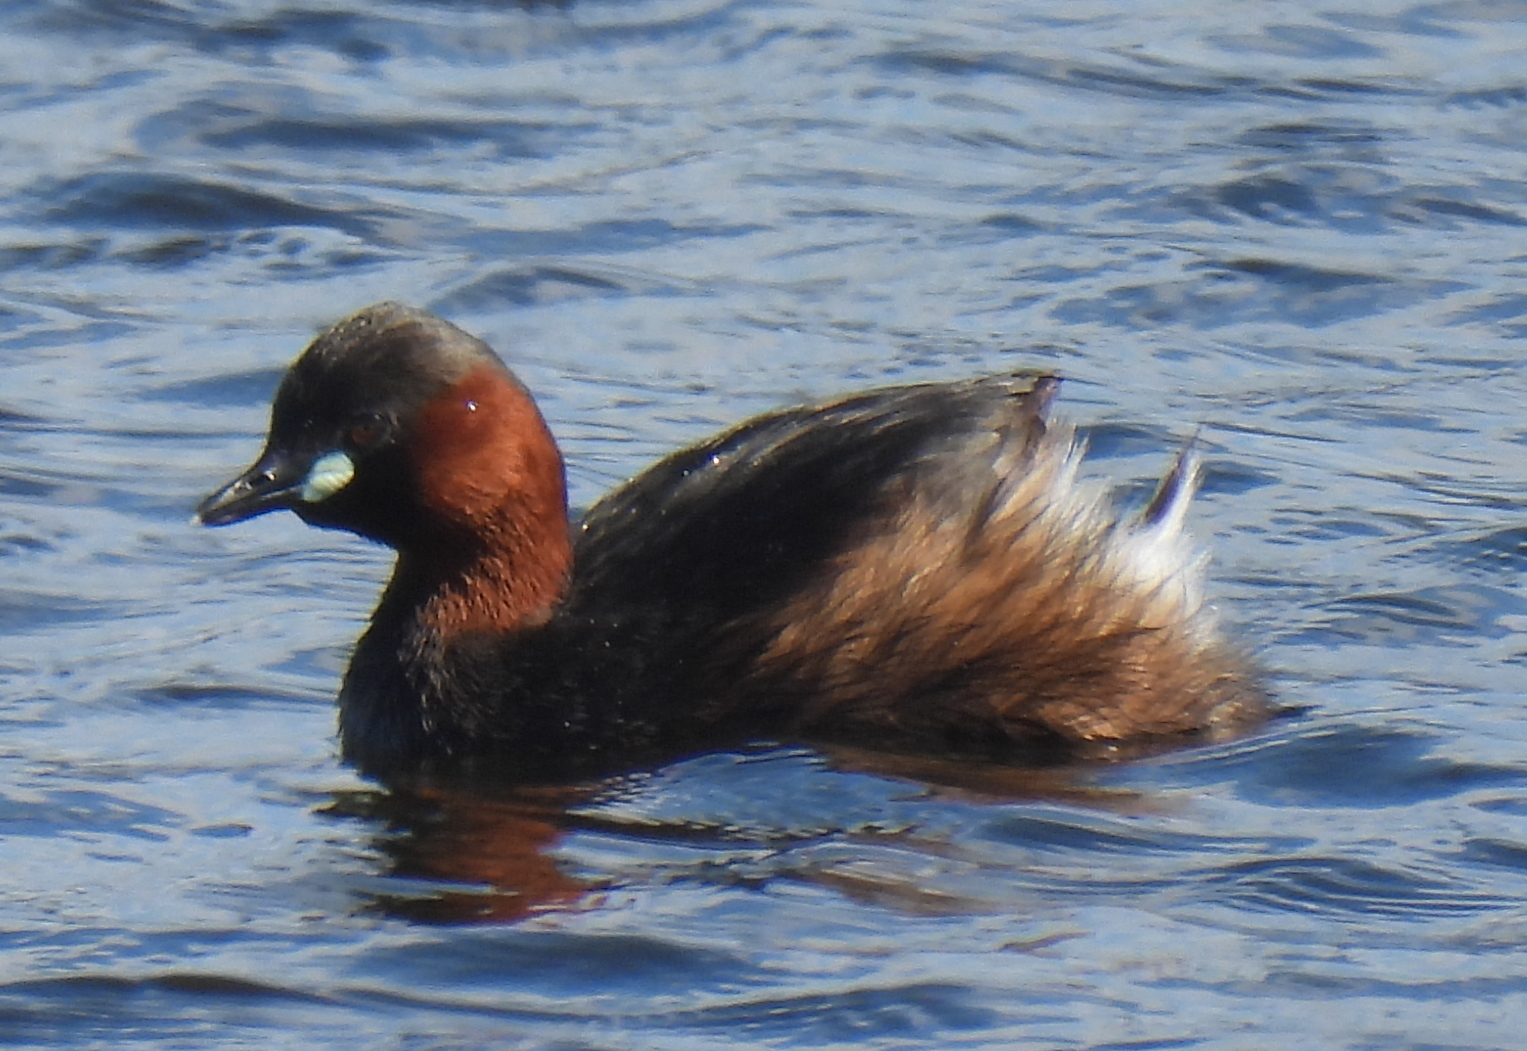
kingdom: Animalia
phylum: Chordata
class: Aves
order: Podicipediformes
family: Podicipedidae
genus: Tachybaptus
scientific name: Tachybaptus ruficollis
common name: Little grebe
